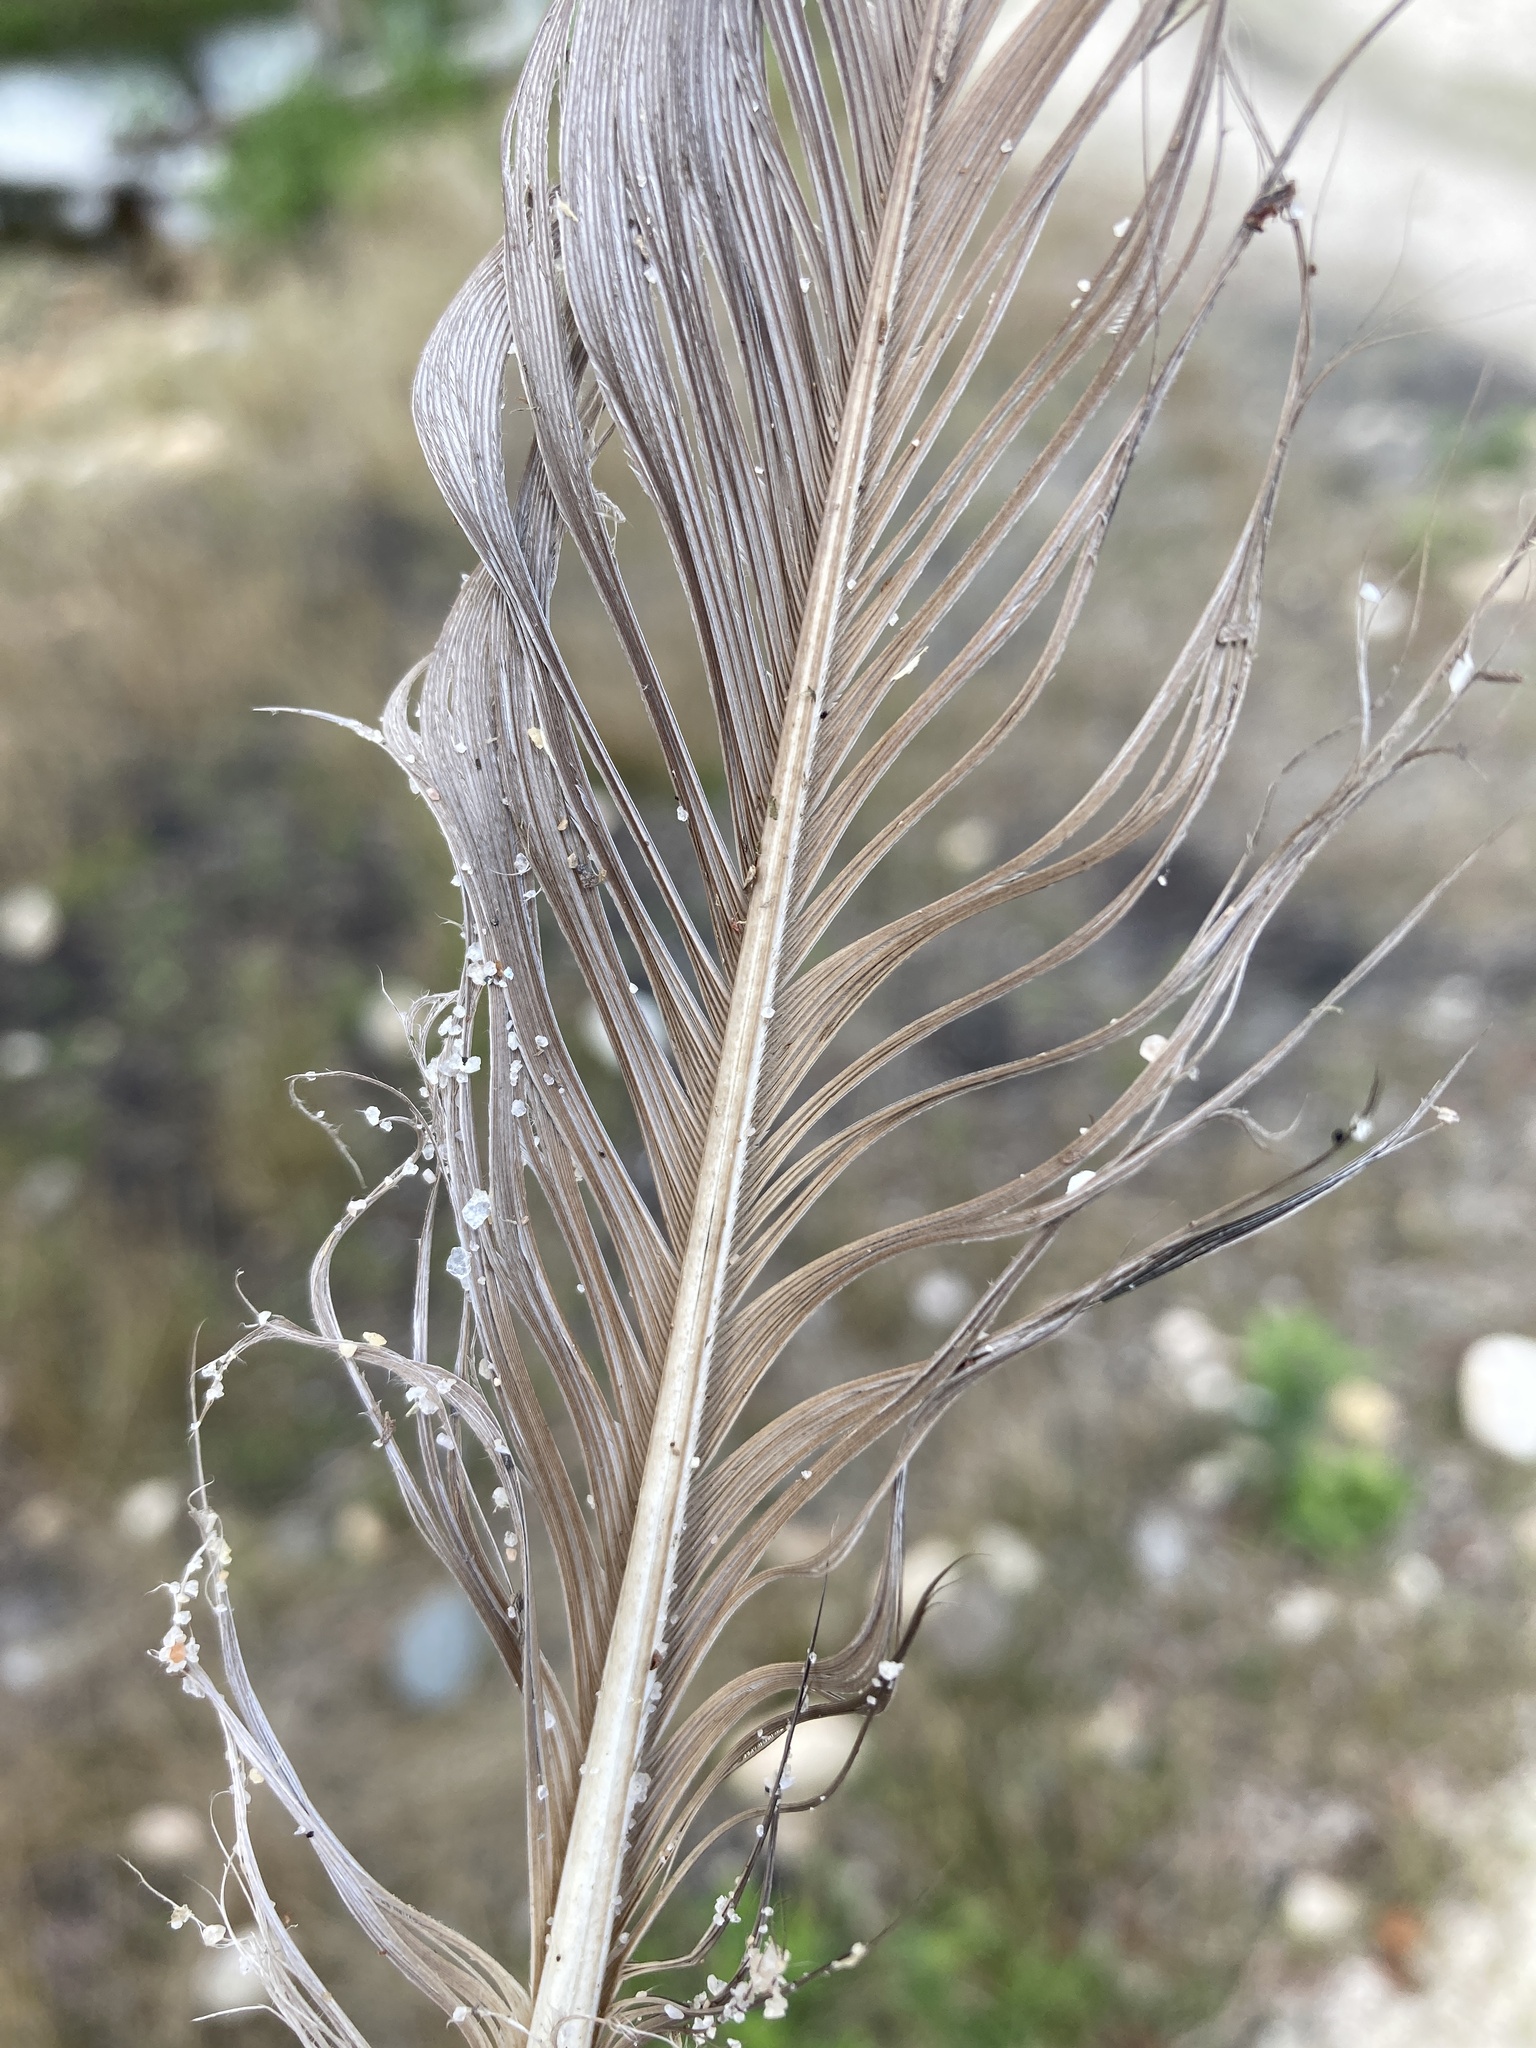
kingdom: Animalia
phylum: Chordata
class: Aves
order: Pelecaniformes
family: Ardeidae
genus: Ardea
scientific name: Ardea herodias
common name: Great blue heron
